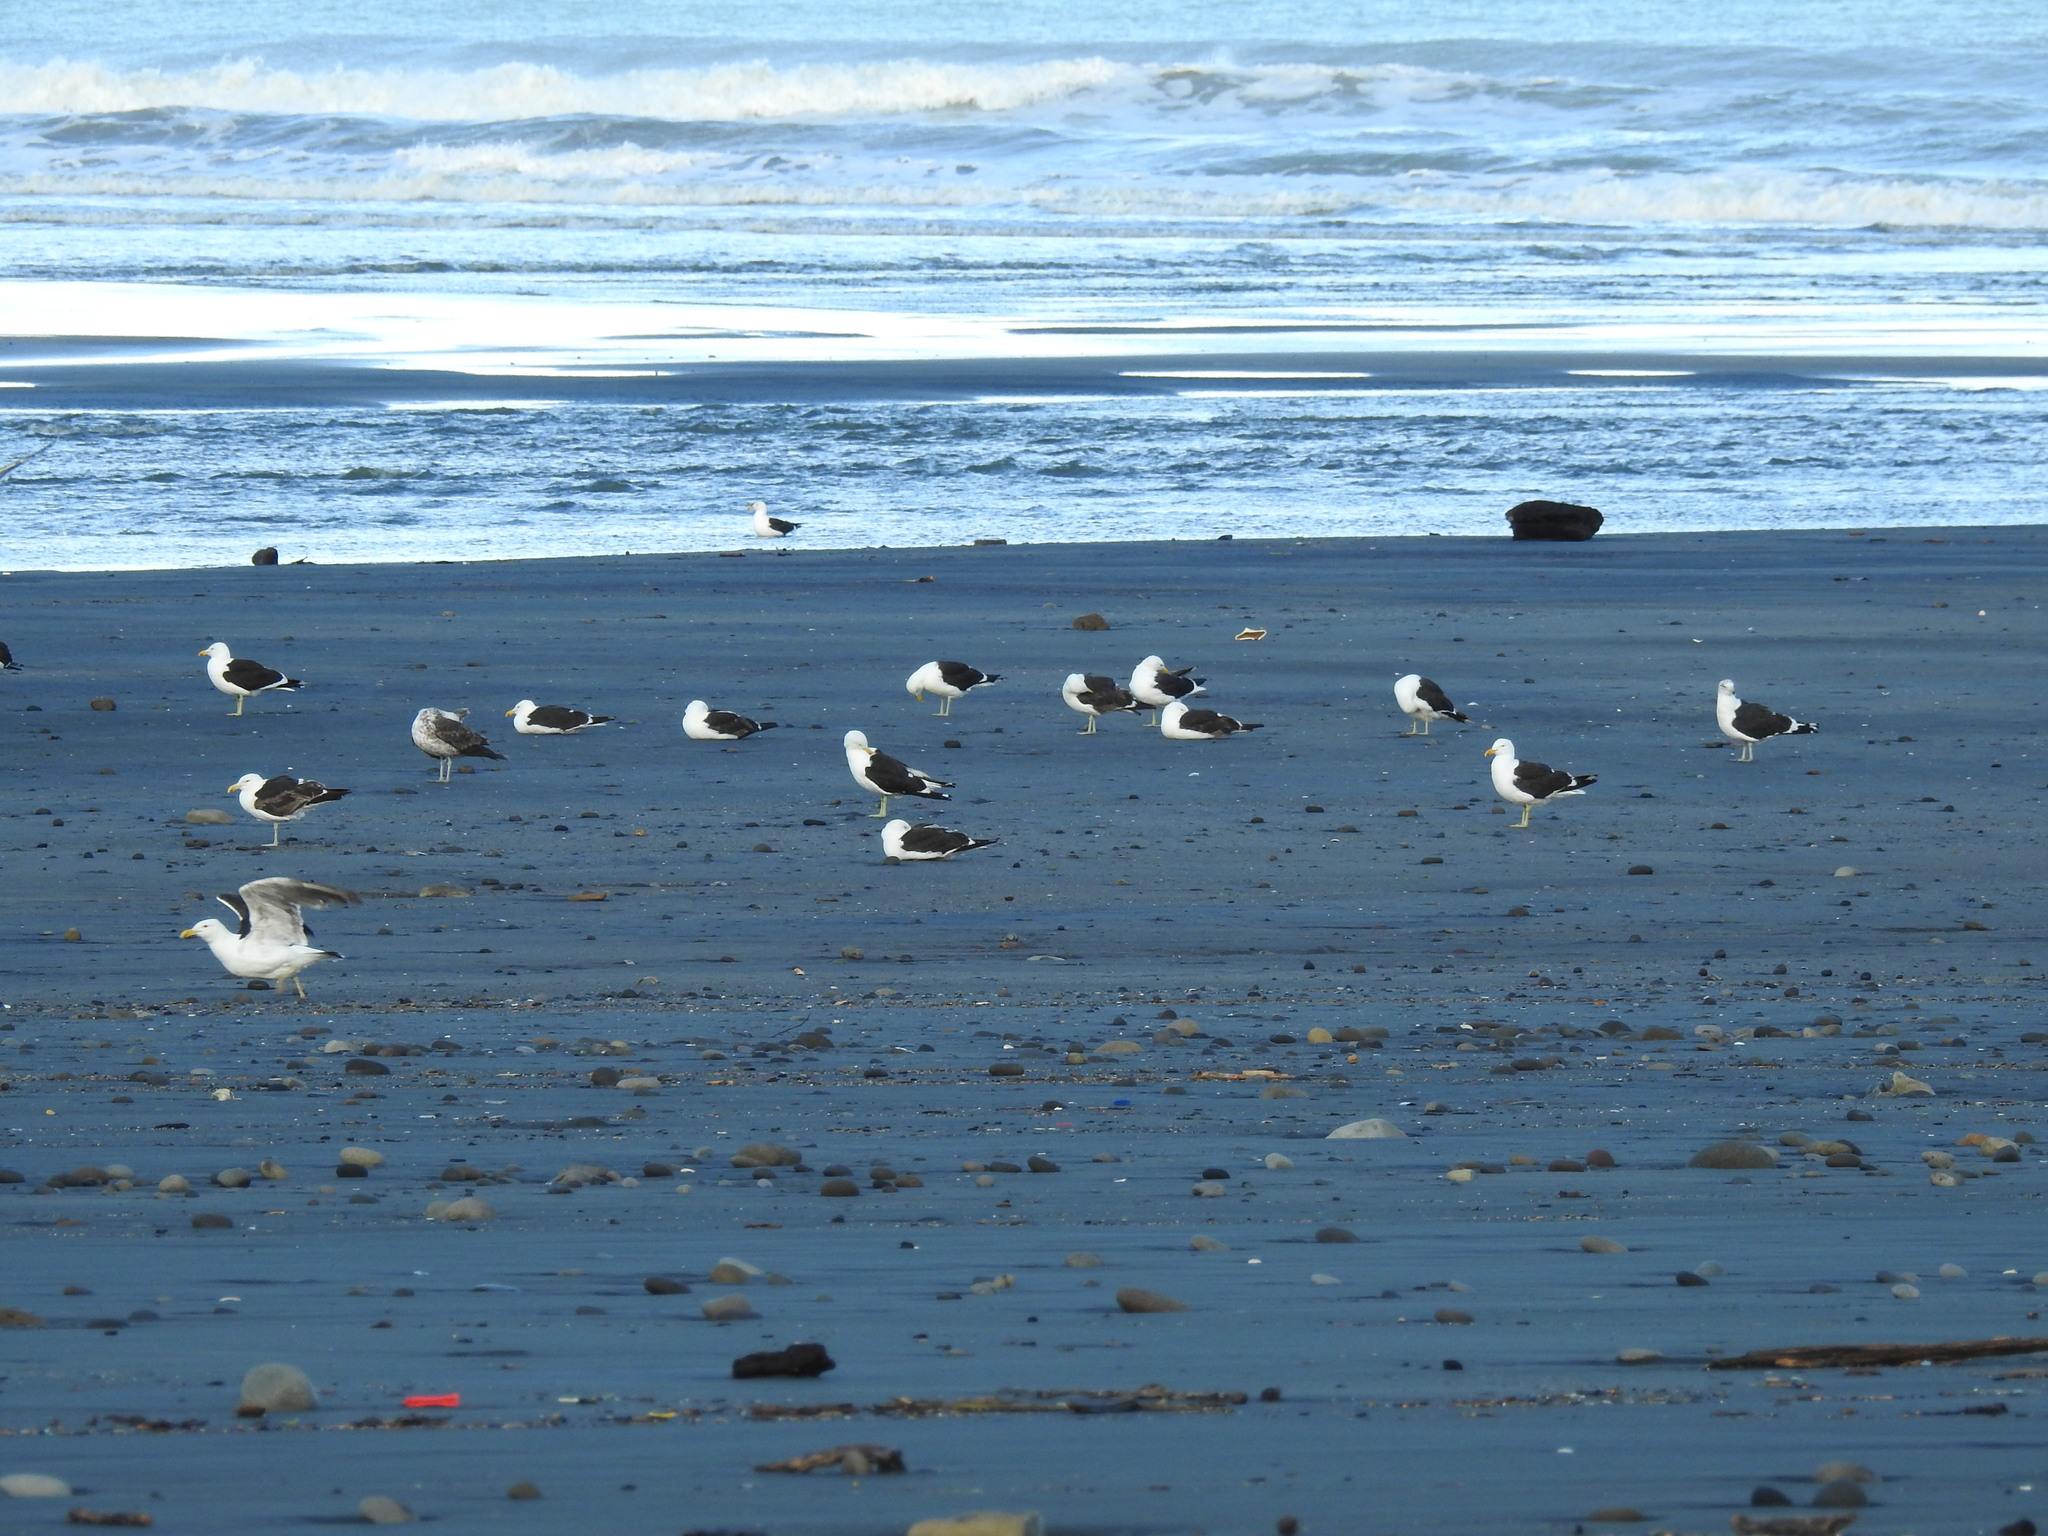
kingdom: Animalia
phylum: Chordata
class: Aves
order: Charadriiformes
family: Laridae
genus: Larus
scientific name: Larus dominicanus
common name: Kelp gull
